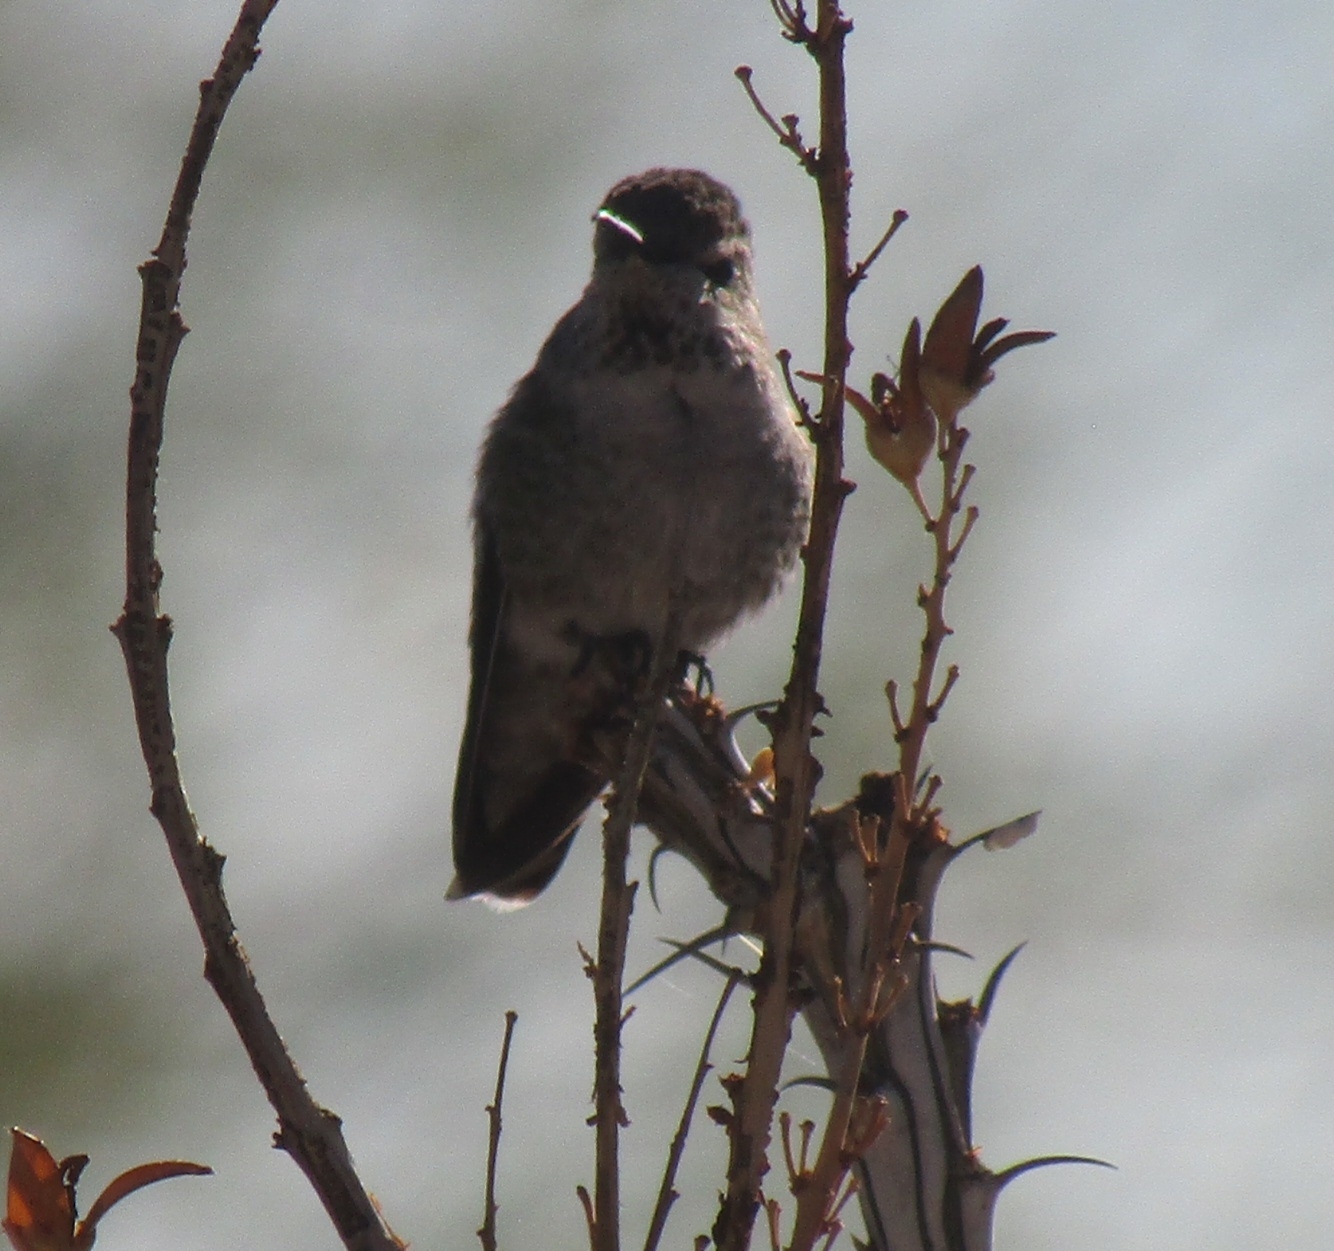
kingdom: Animalia
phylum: Chordata
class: Aves
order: Apodiformes
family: Trochilidae
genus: Calypte
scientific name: Calypte anna
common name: Anna's hummingbird
